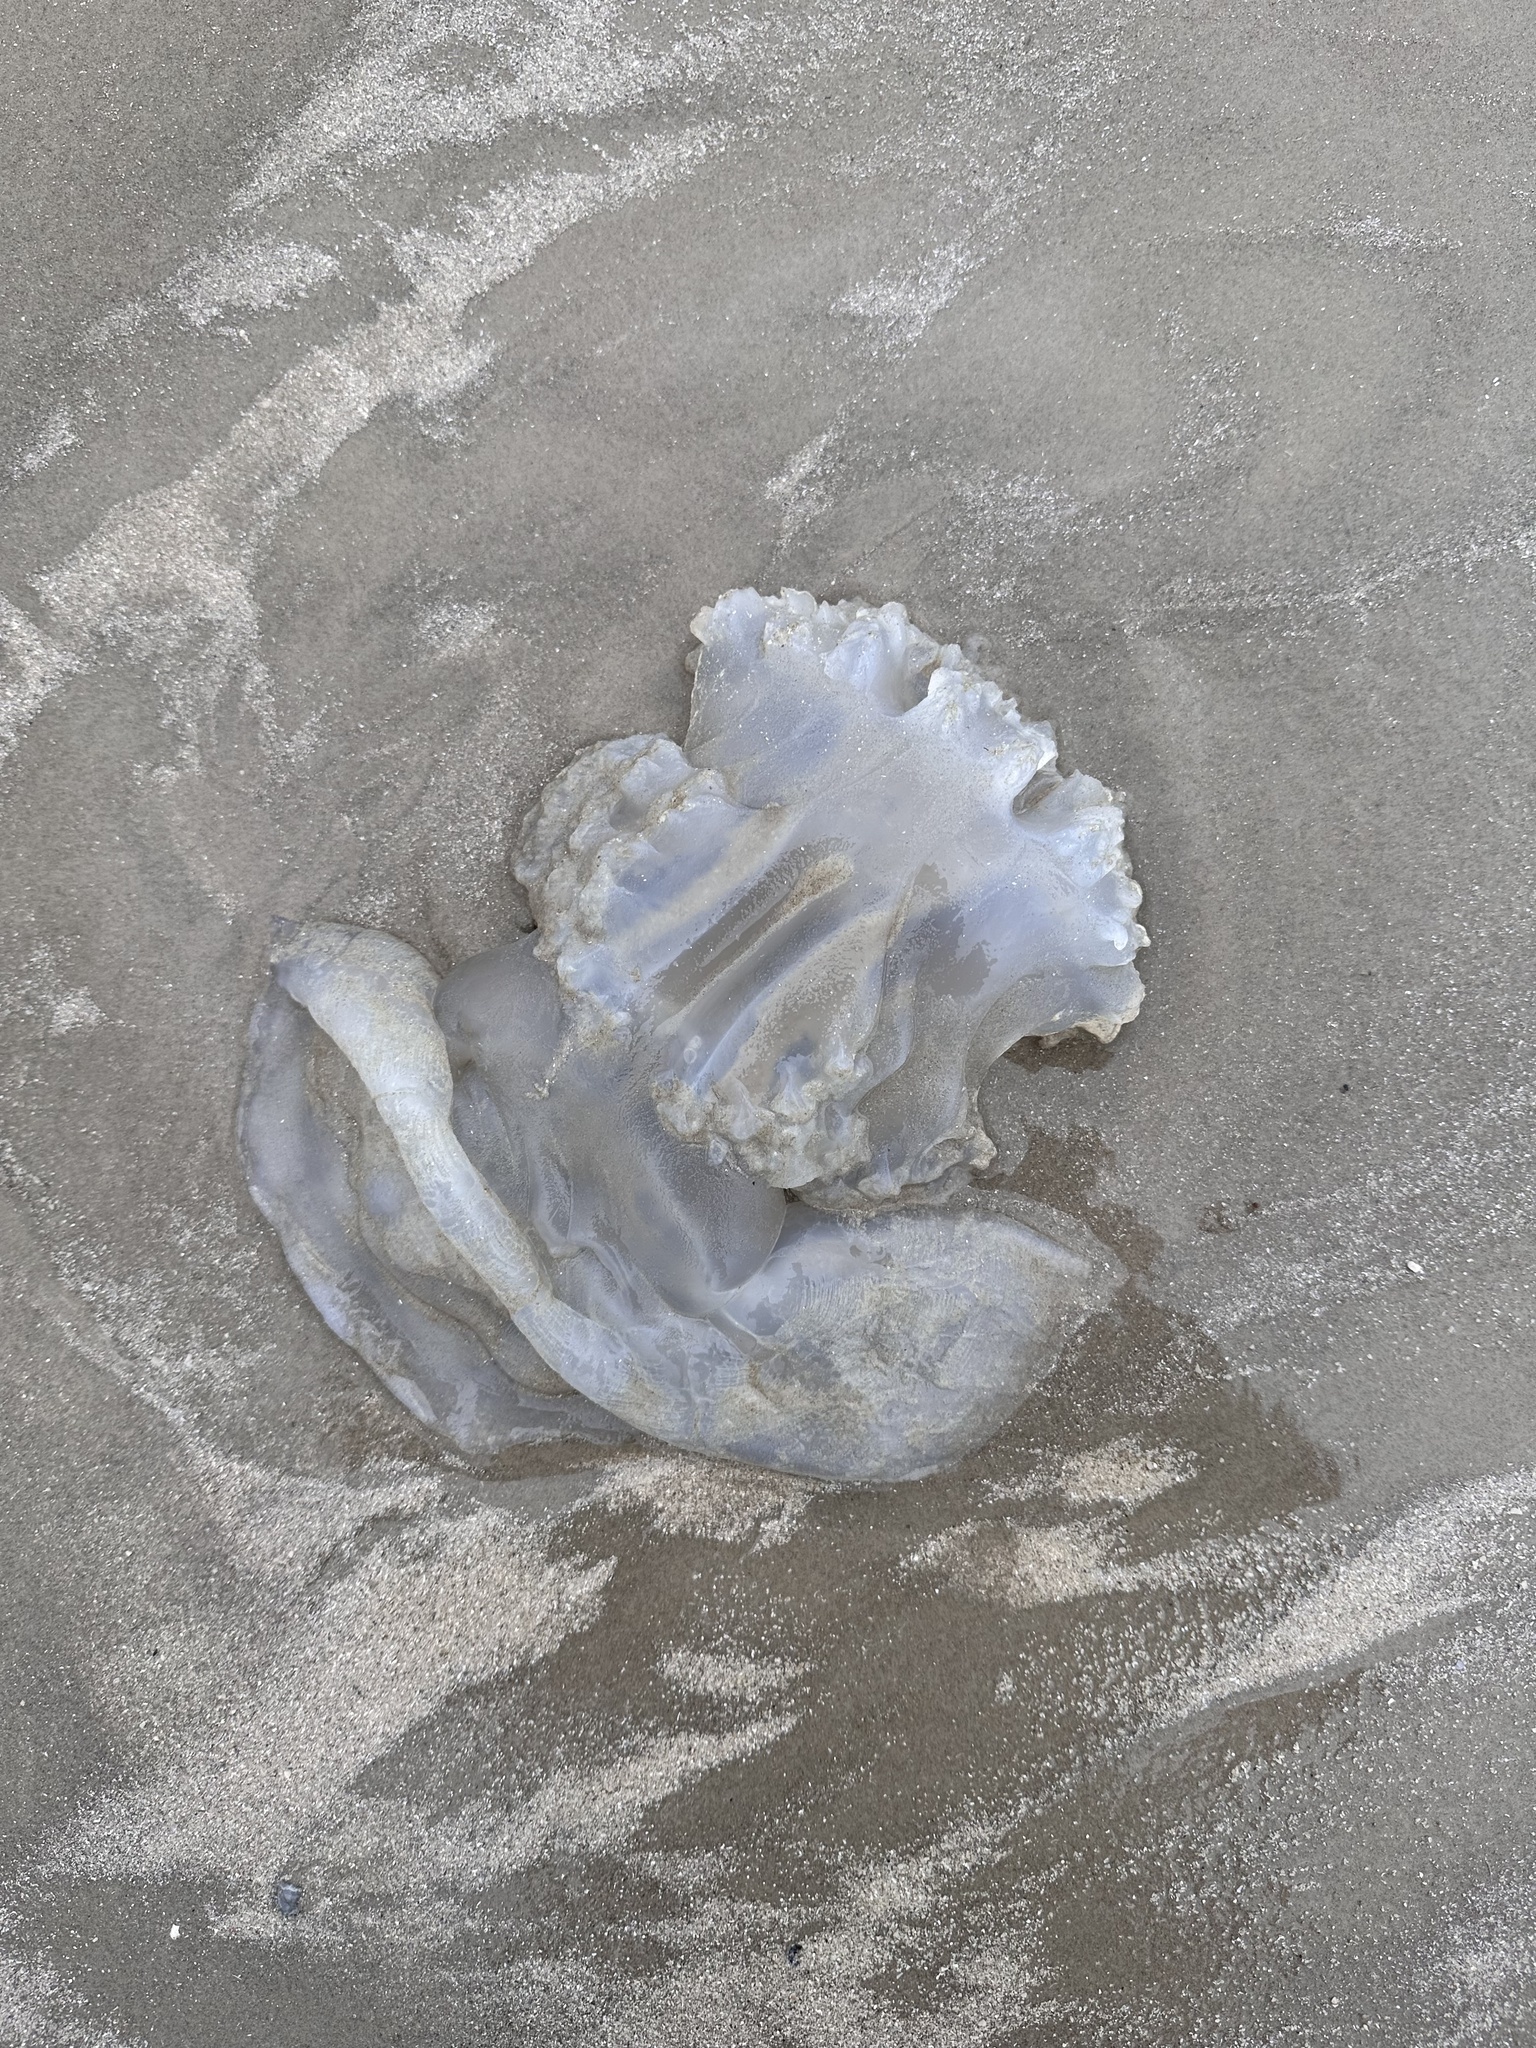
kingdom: Animalia
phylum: Cnidaria
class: Scyphozoa
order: Rhizostomeae
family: Stomolophidae
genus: Stomolophus
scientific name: Stomolophus meleagris
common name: Cabbagehead
